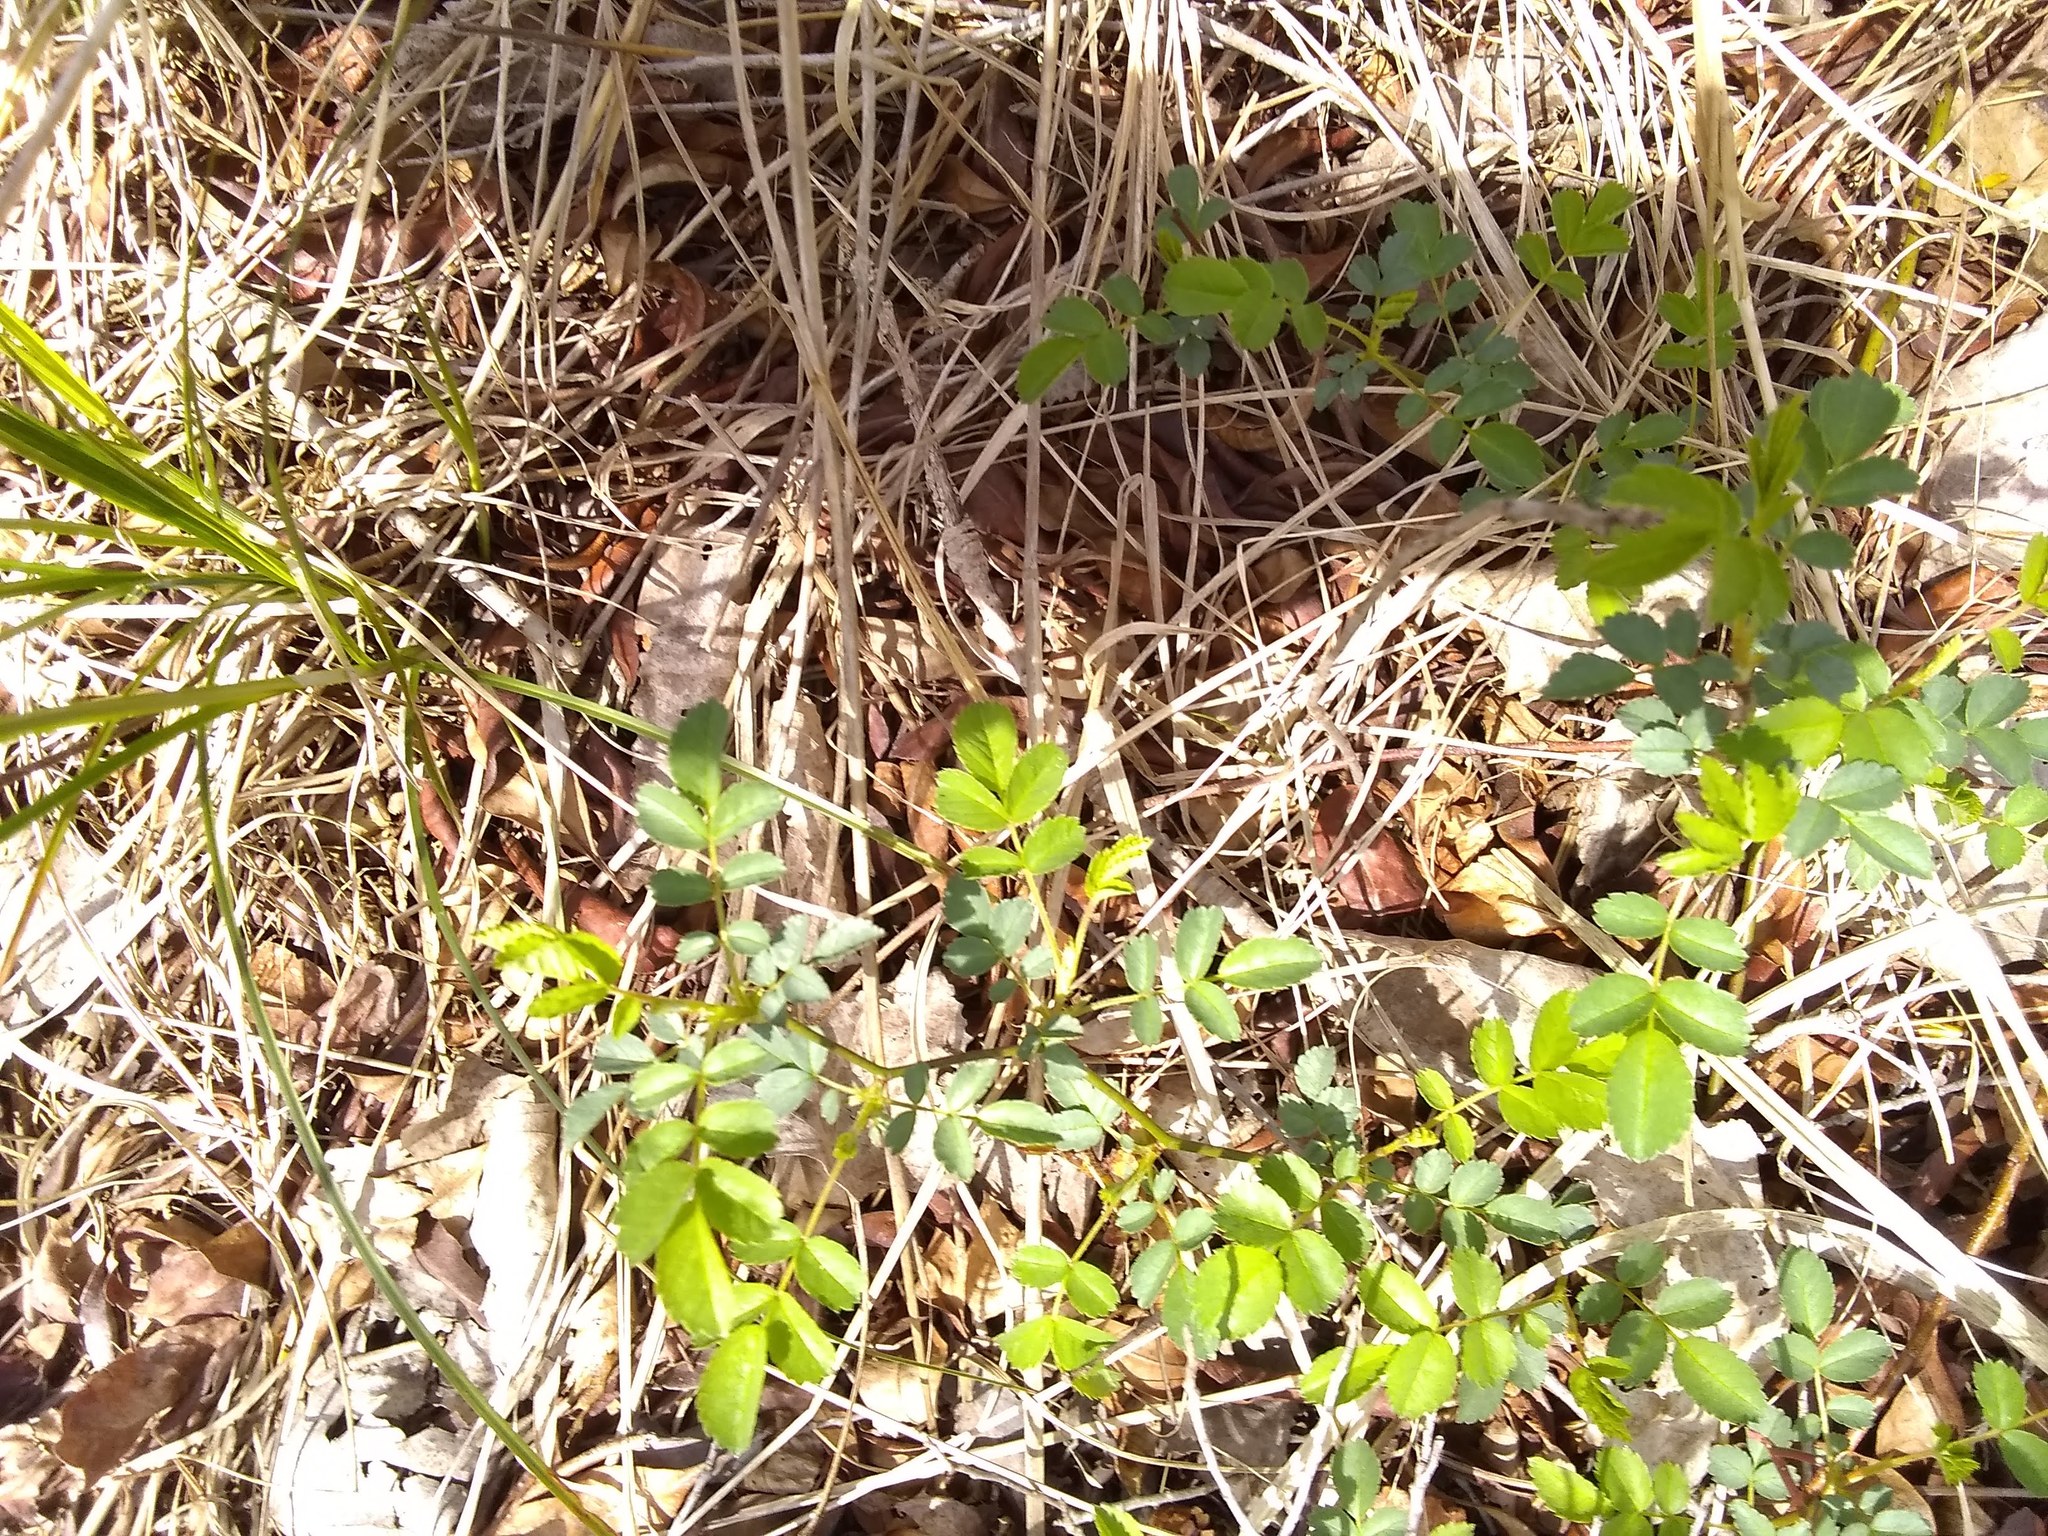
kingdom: Plantae
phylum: Tracheophyta
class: Magnoliopsida
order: Rosales
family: Rosaceae
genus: Rosa
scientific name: Rosa multiflora
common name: Multiflora rose
